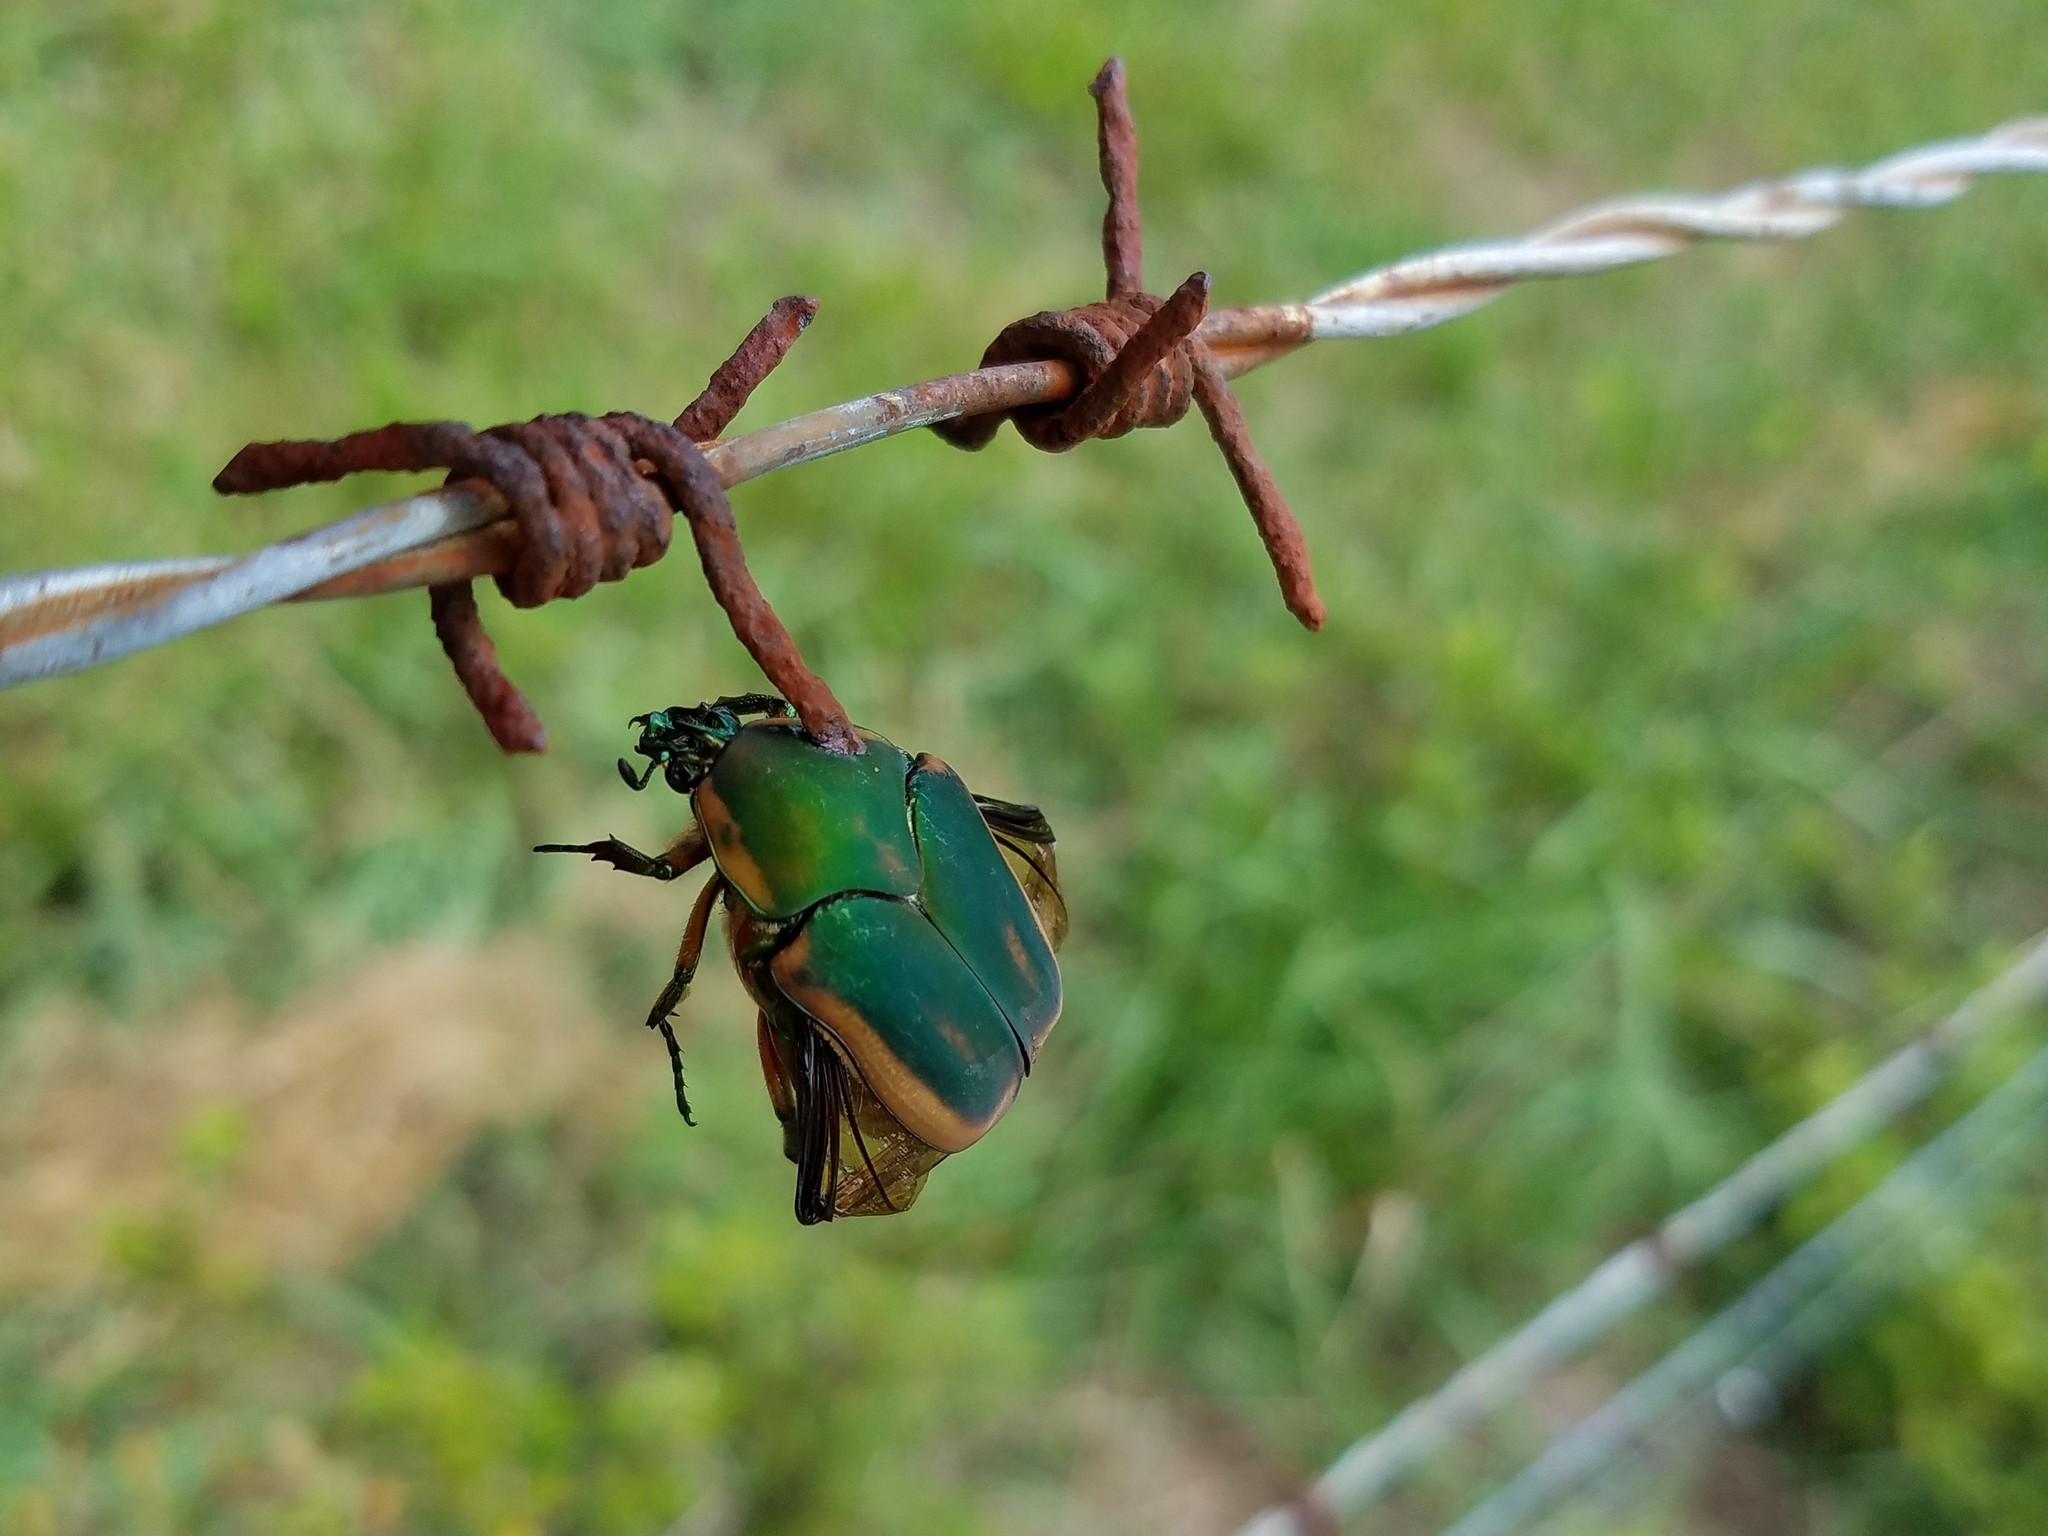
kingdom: Animalia
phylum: Arthropoda
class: Insecta
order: Coleoptera
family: Scarabaeidae
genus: Cotinis
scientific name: Cotinis nitida
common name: Common green june beetle
